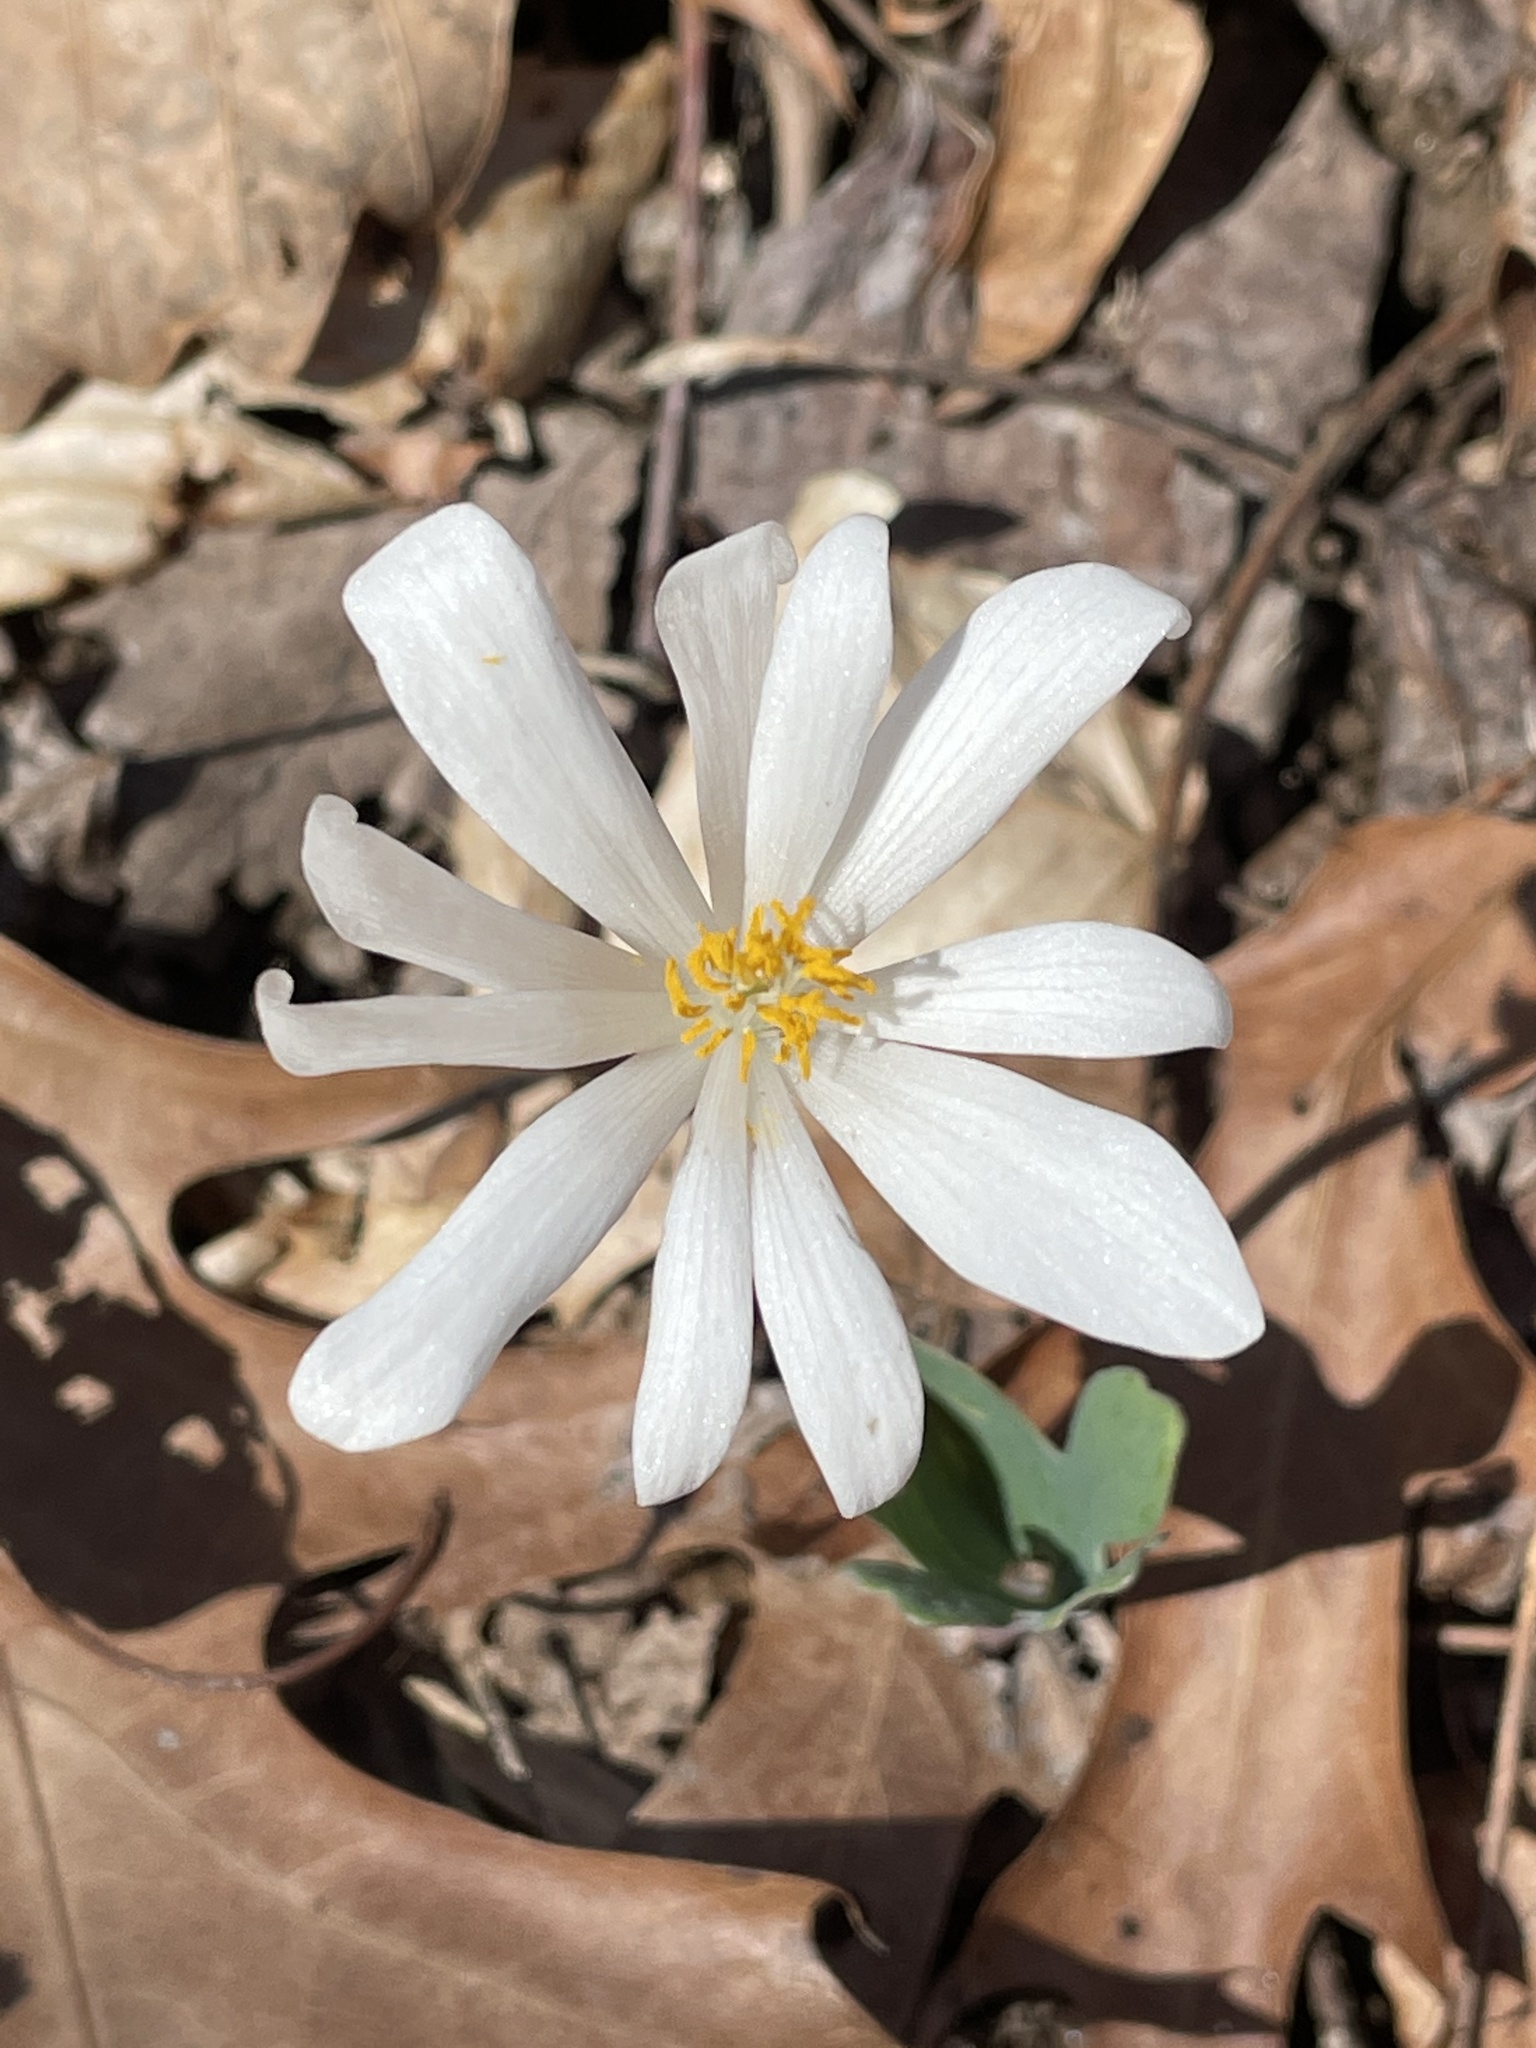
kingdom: Plantae
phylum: Tracheophyta
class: Magnoliopsida
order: Ranunculales
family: Papaveraceae
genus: Sanguinaria
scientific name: Sanguinaria canadensis
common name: Bloodroot
